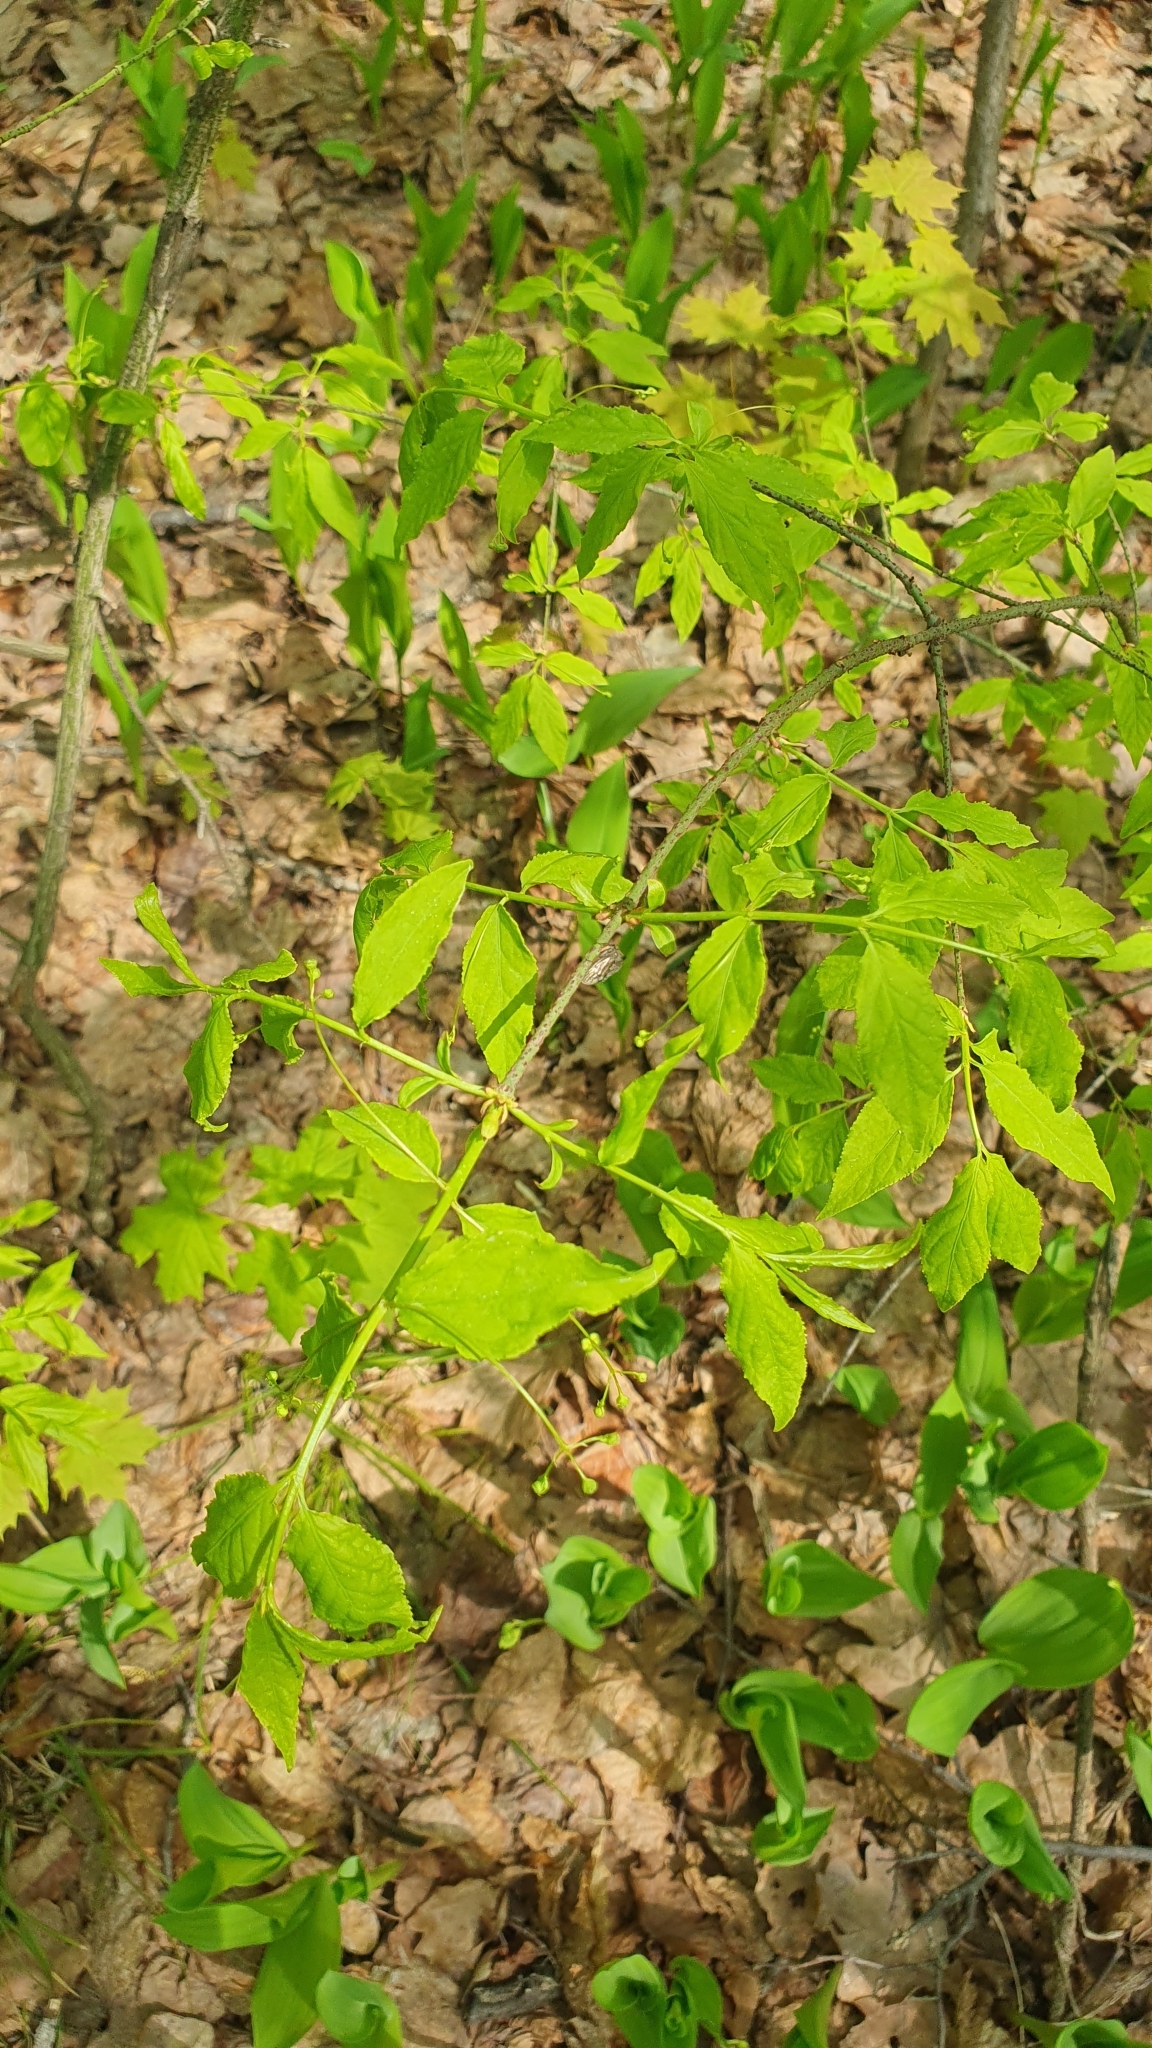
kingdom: Plantae
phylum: Tracheophyta
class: Magnoliopsida
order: Celastrales
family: Celastraceae
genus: Euonymus
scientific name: Euonymus verrucosus
